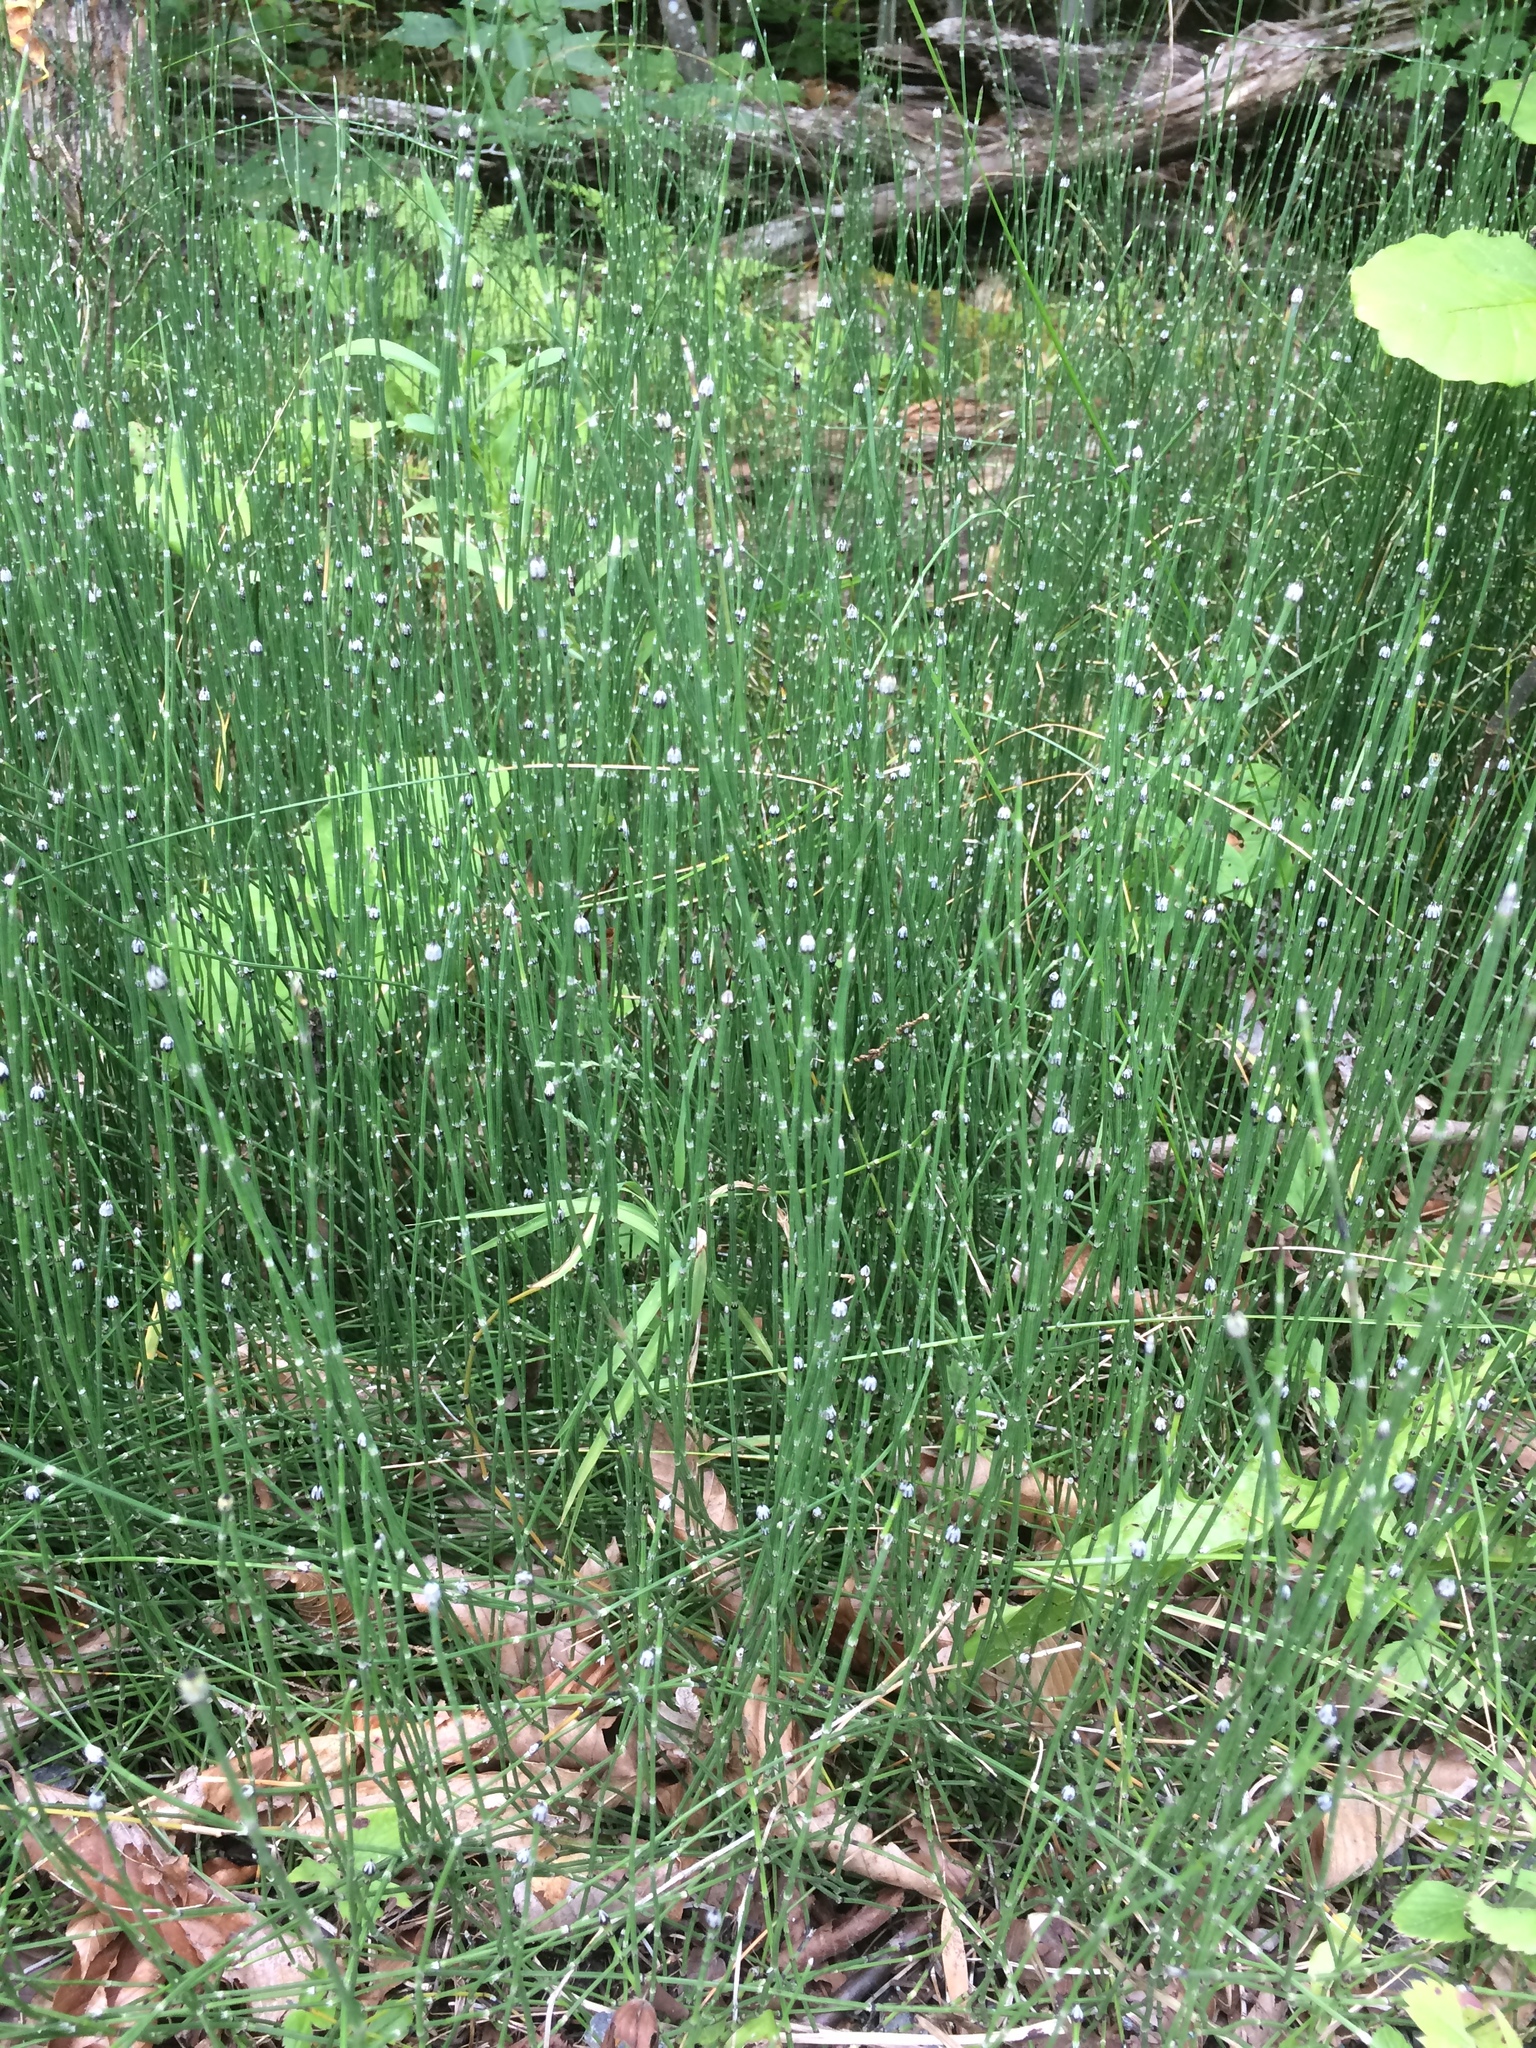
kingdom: Plantae
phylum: Tracheophyta
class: Polypodiopsida
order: Equisetales
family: Equisetaceae
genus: Equisetum
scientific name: Equisetum variegatum
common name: Variegated horsetail
